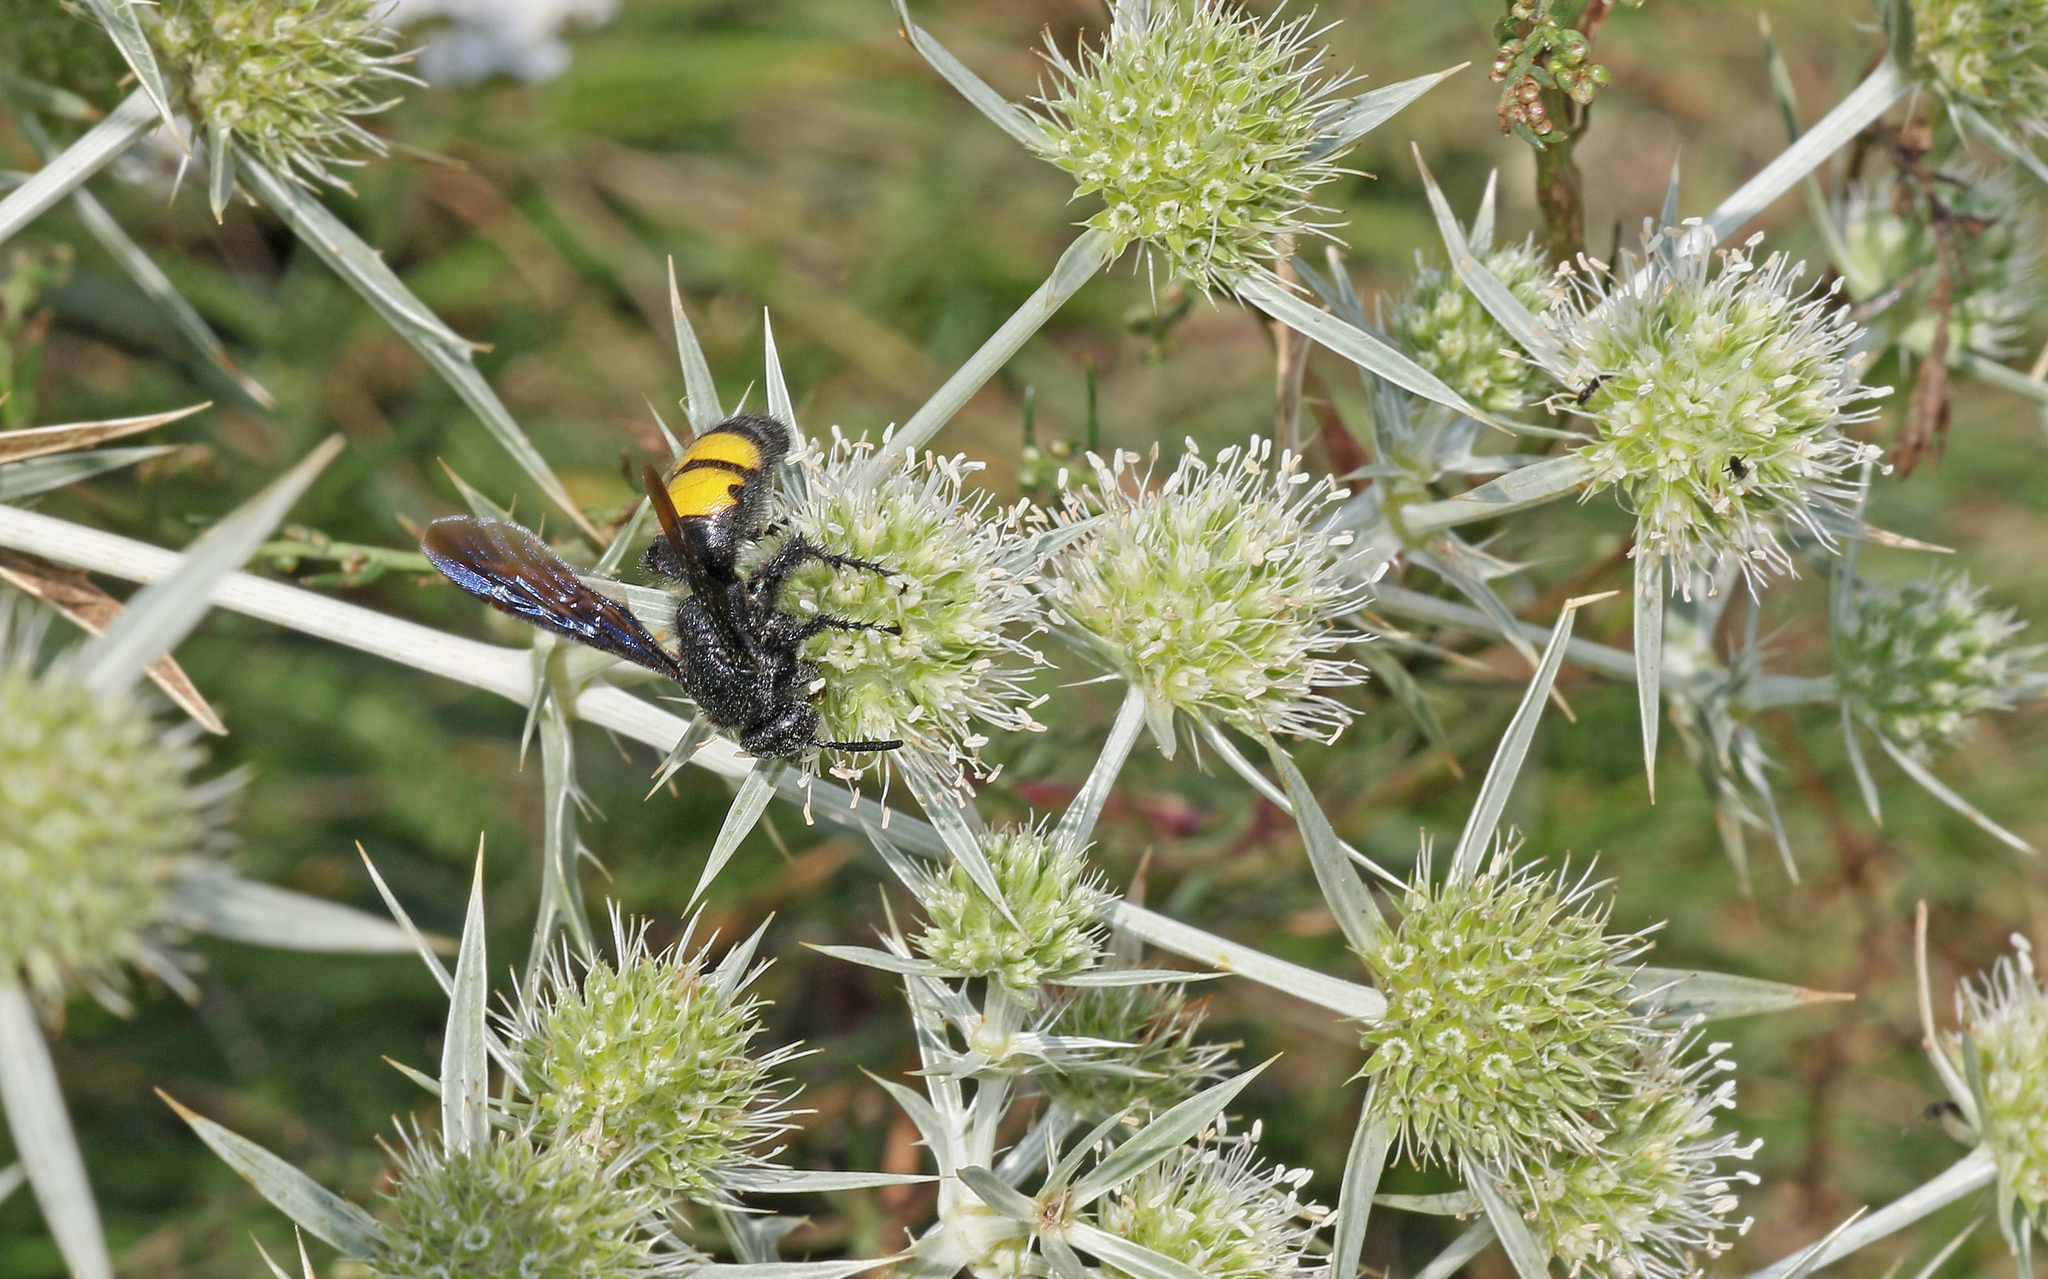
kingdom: Animalia
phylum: Arthropoda
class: Insecta
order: Hymenoptera
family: Scoliidae
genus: Scolia
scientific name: Scolia hirta
